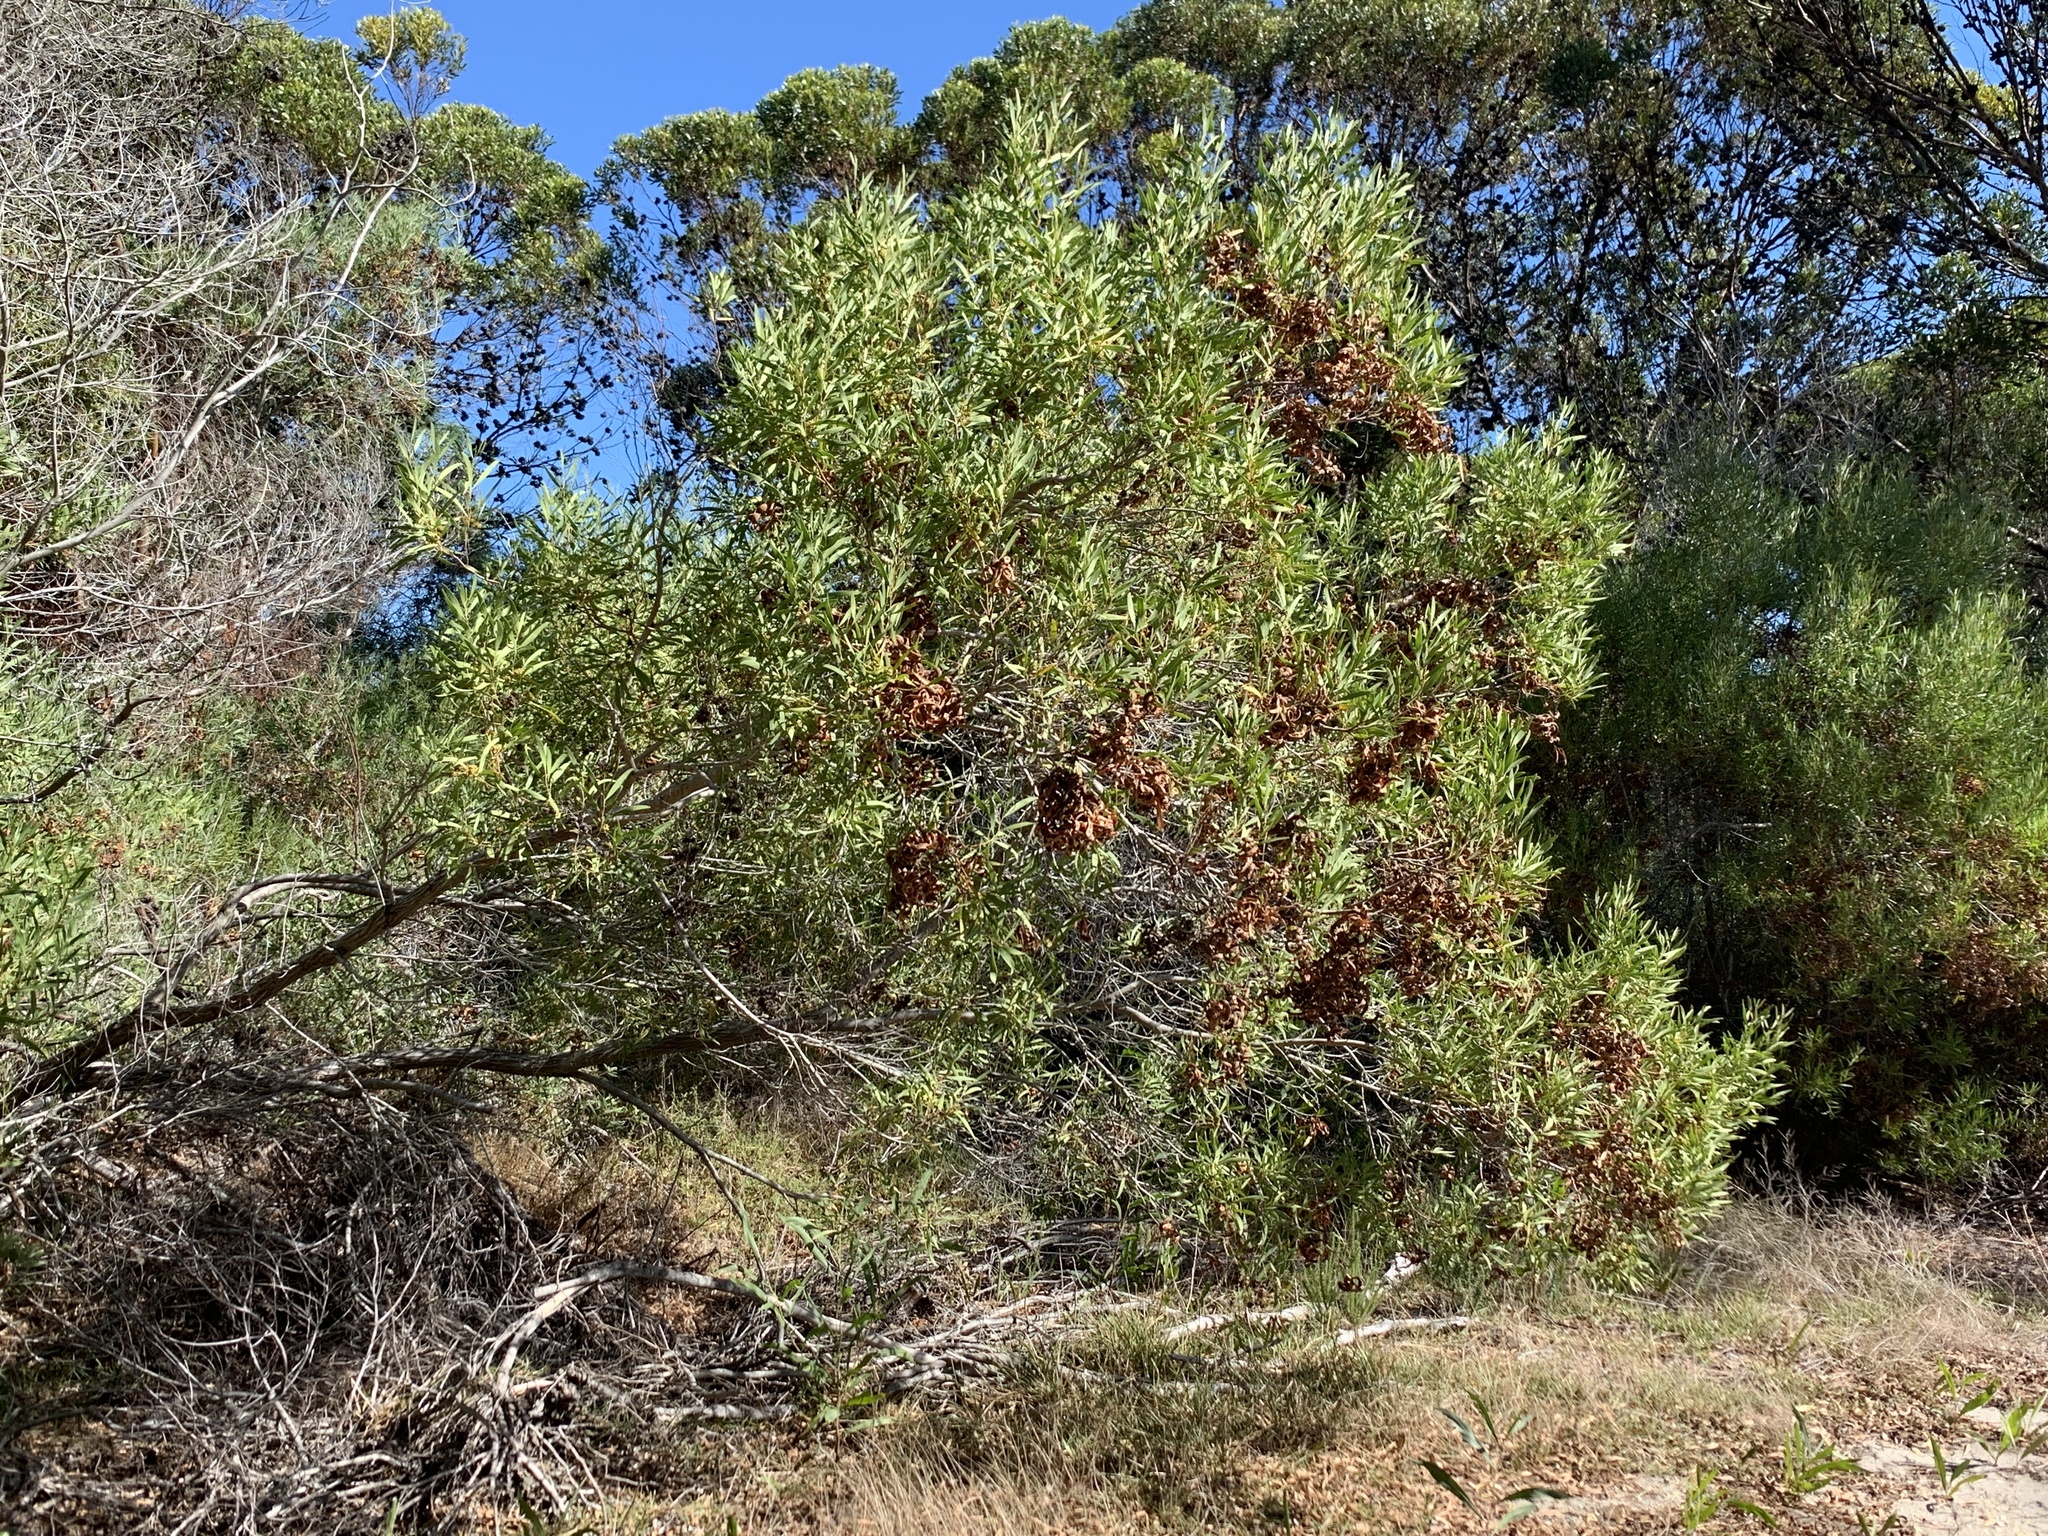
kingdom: Plantae
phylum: Tracheophyta
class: Magnoliopsida
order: Fabales
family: Fabaceae
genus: Acacia
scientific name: Acacia cyclops
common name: Coastal wattle
